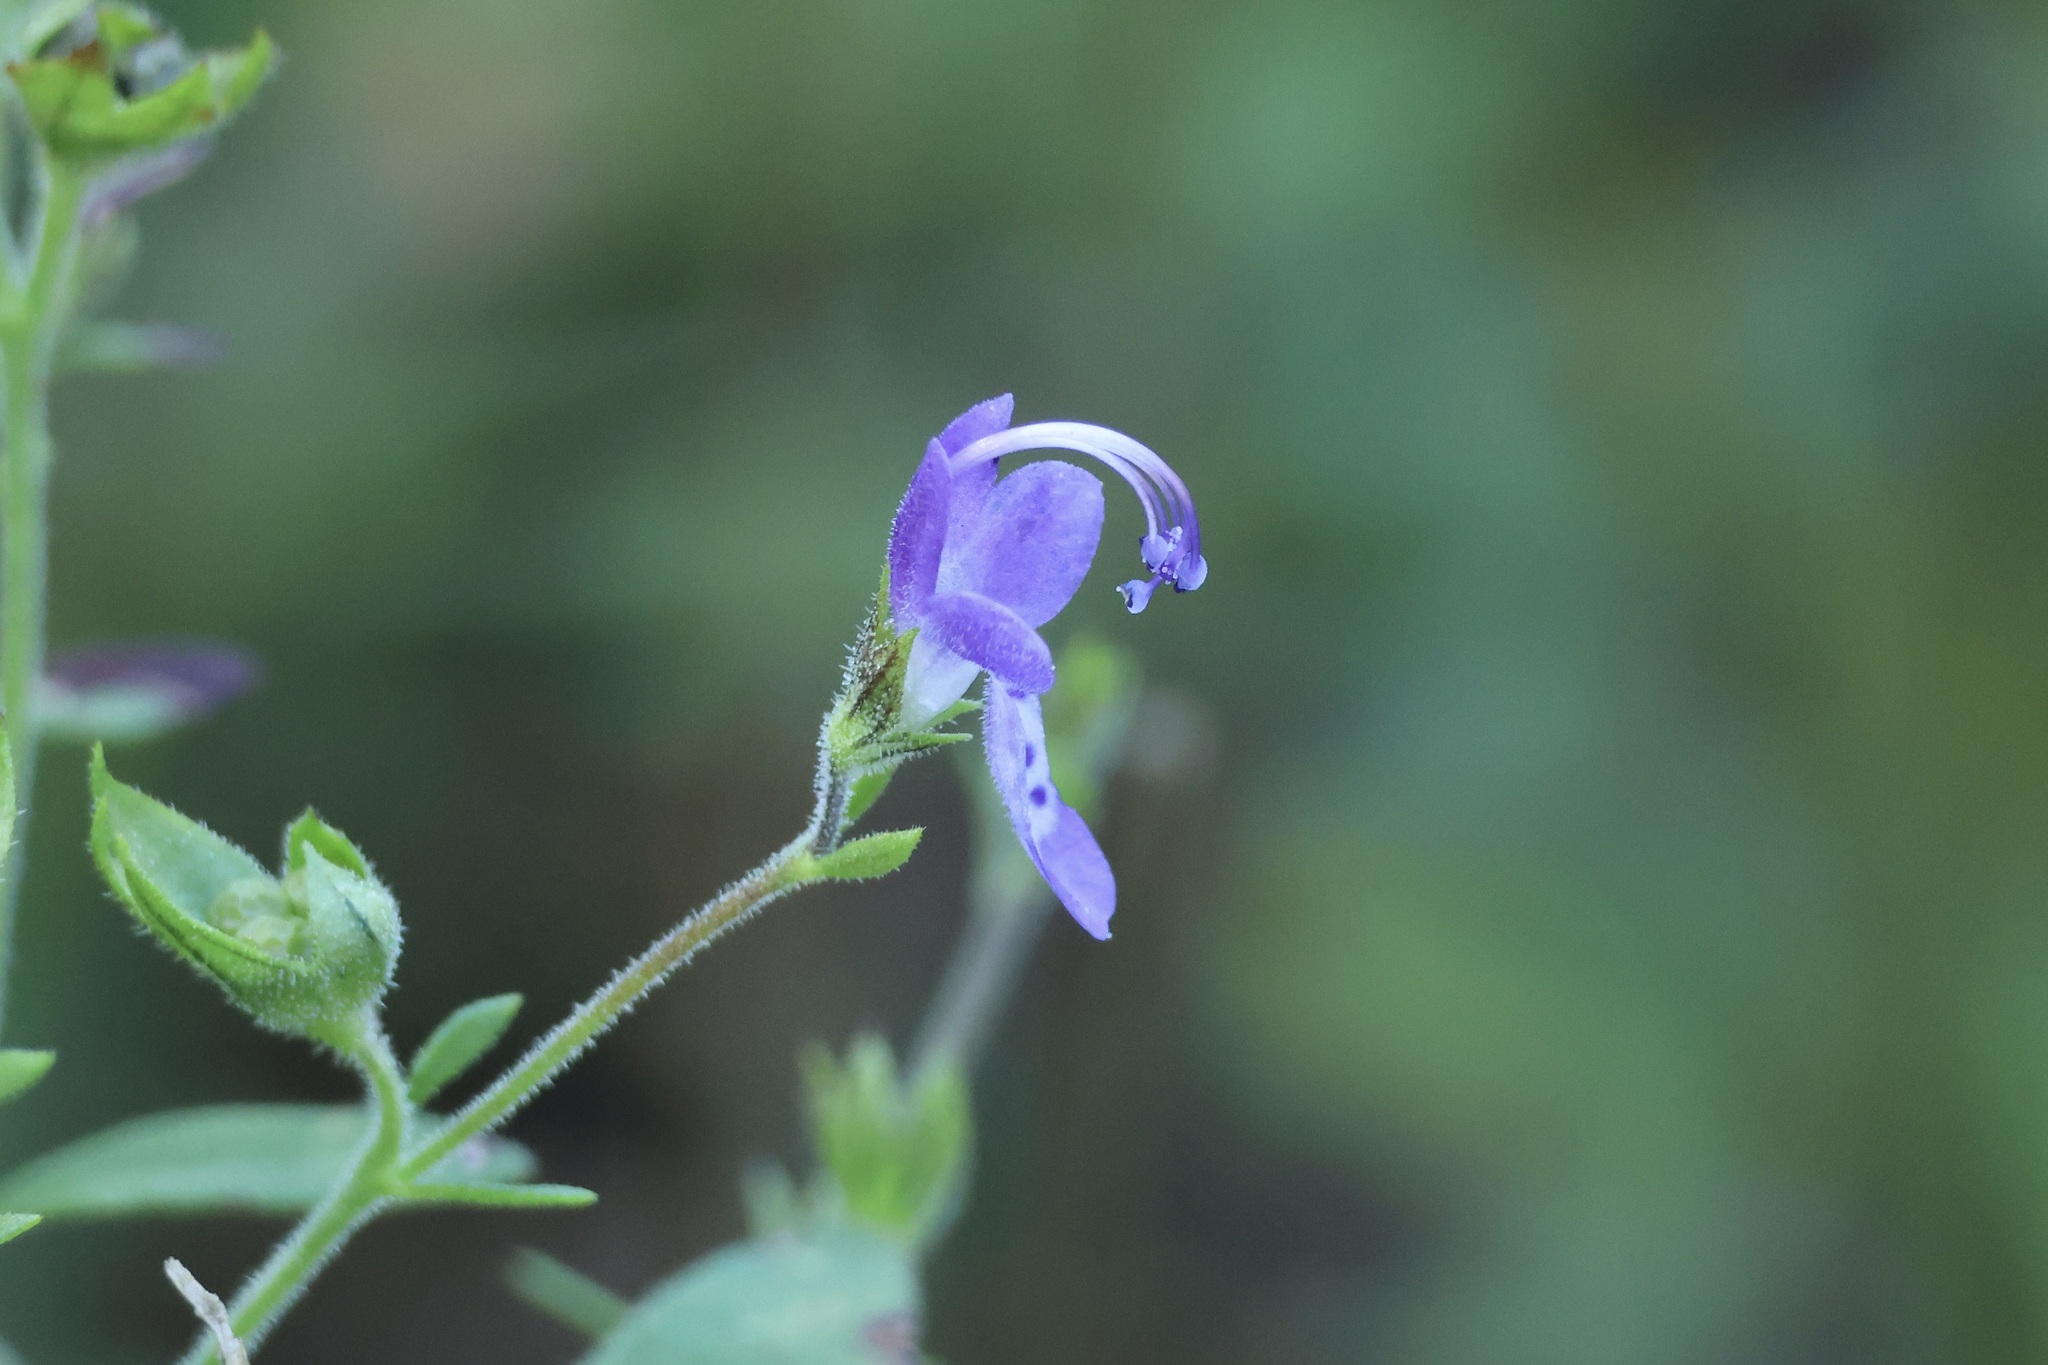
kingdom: Plantae
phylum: Tracheophyta
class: Magnoliopsida
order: Lamiales
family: Lamiaceae
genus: Trichostema
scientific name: Trichostema dichotomum
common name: Bastard pennyroyal
